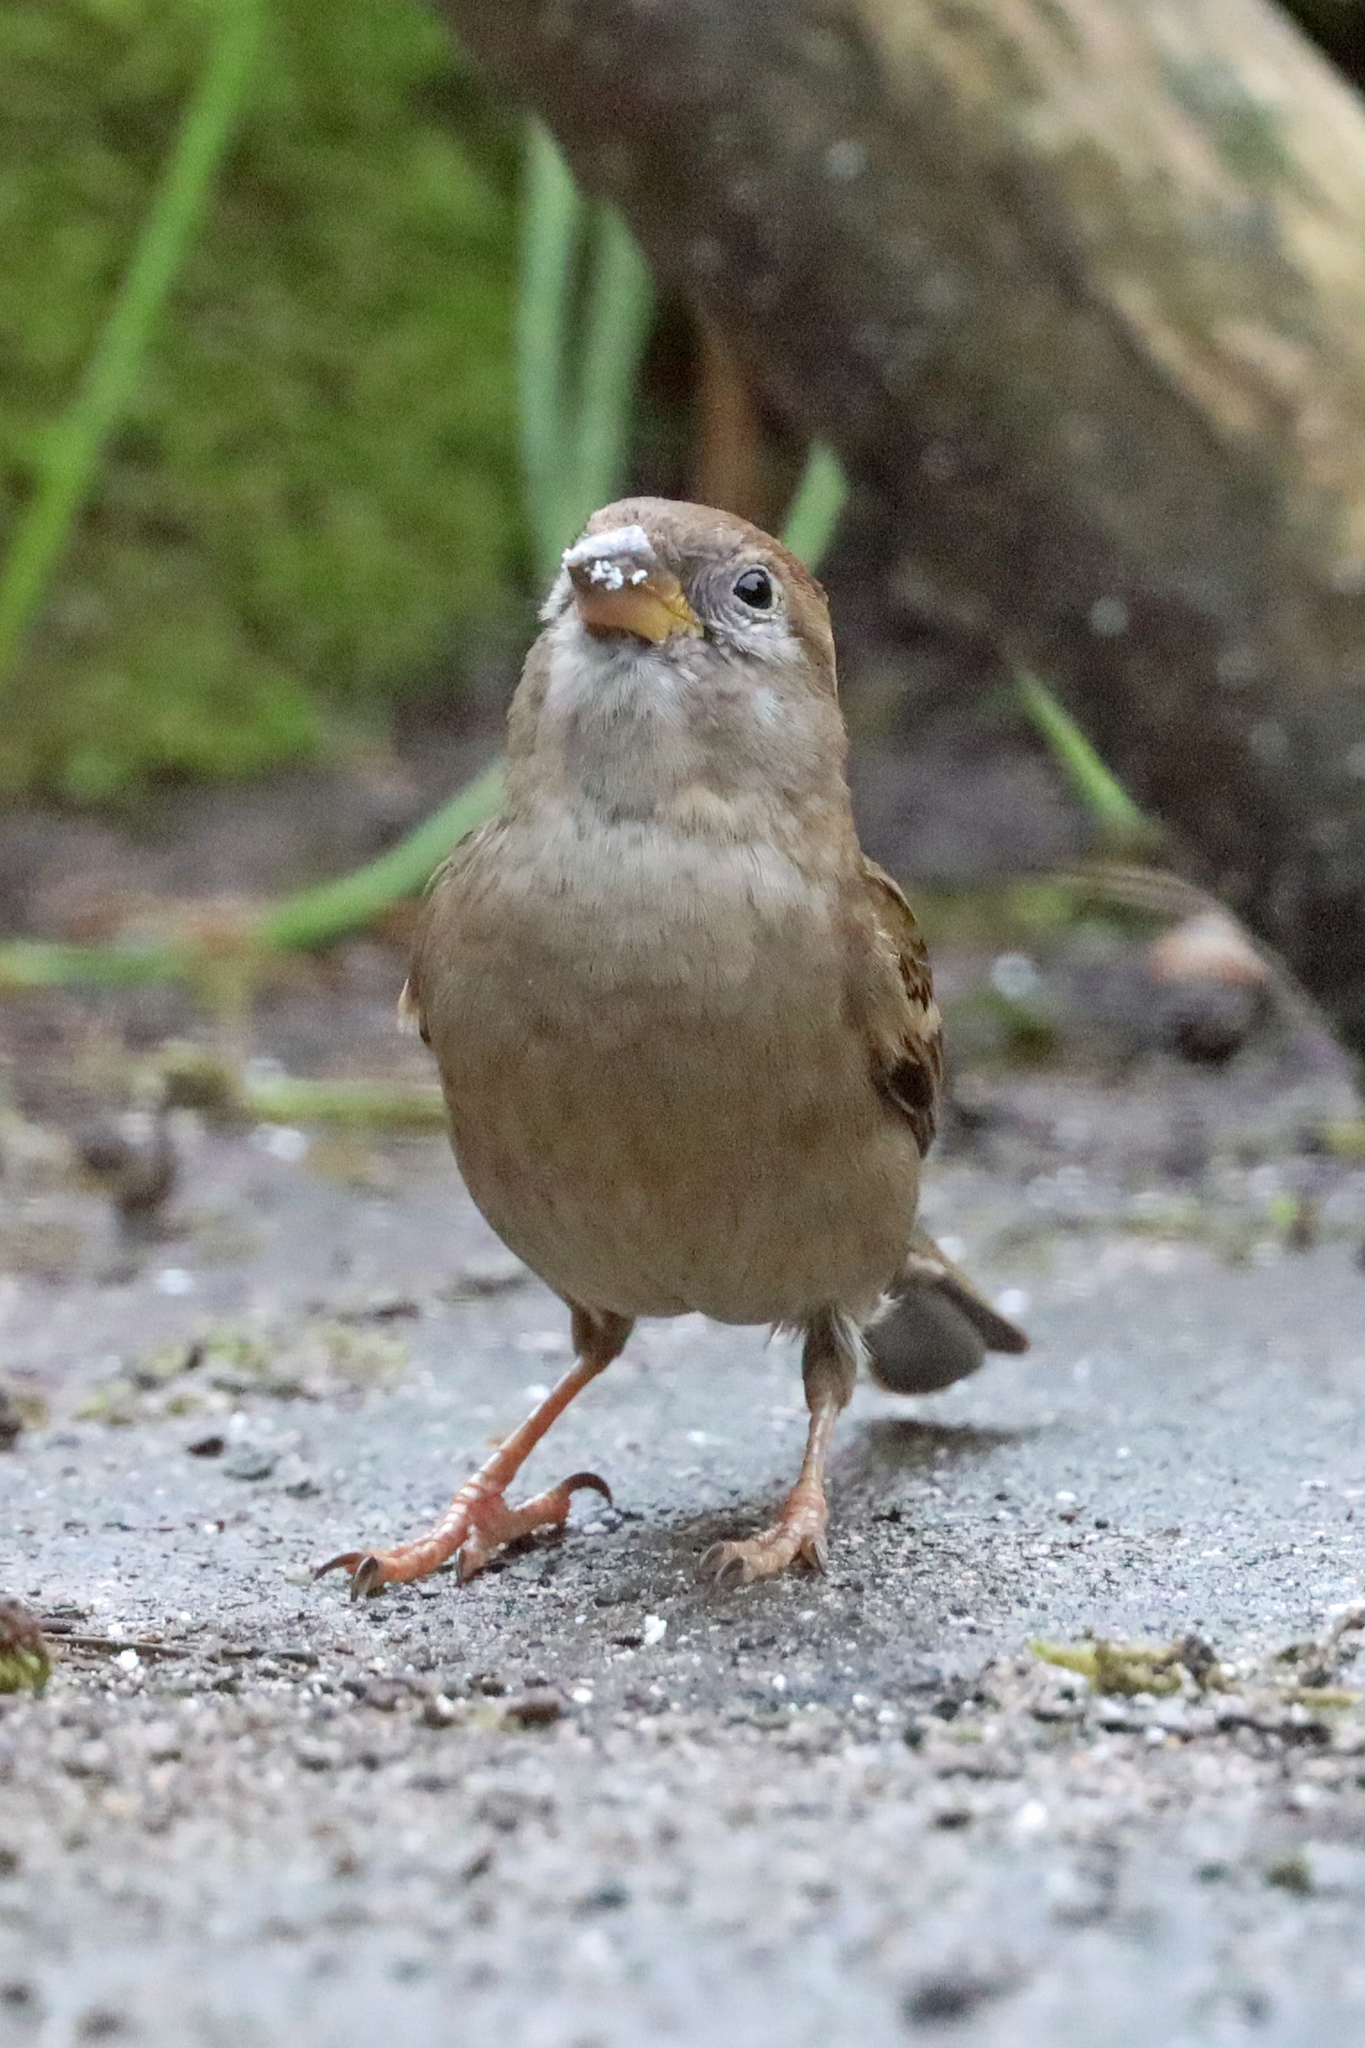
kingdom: Animalia
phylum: Chordata
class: Aves
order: Passeriformes
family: Passeridae
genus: Passer
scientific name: Passer domesticus
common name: House sparrow
